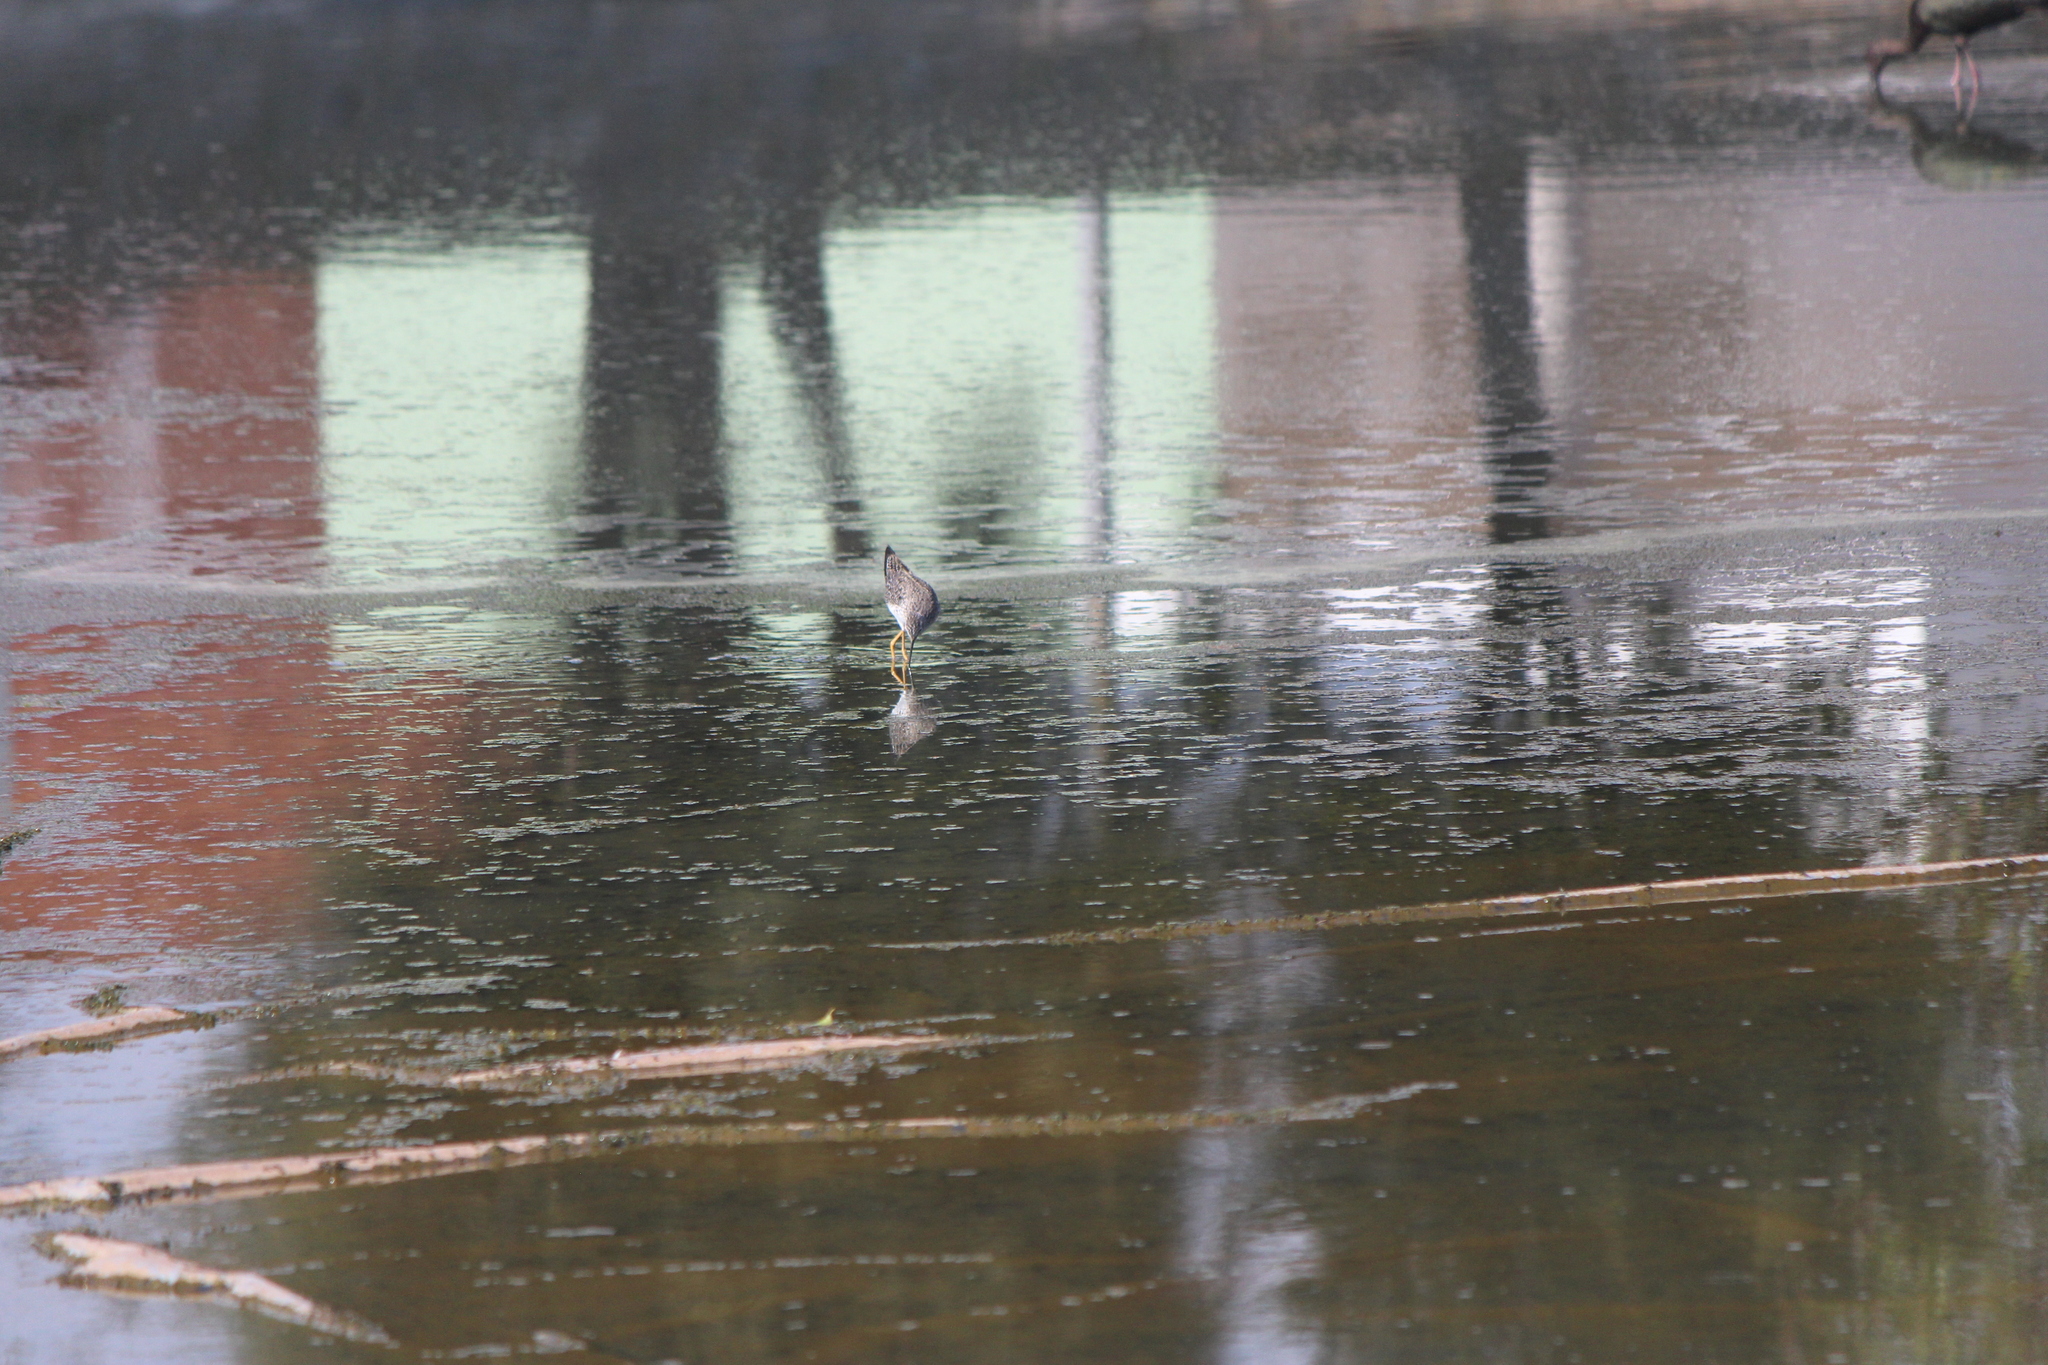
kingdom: Animalia
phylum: Chordata
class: Aves
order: Charadriiformes
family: Scolopacidae
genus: Tringa
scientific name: Tringa flavipes
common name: Lesser yellowlegs
